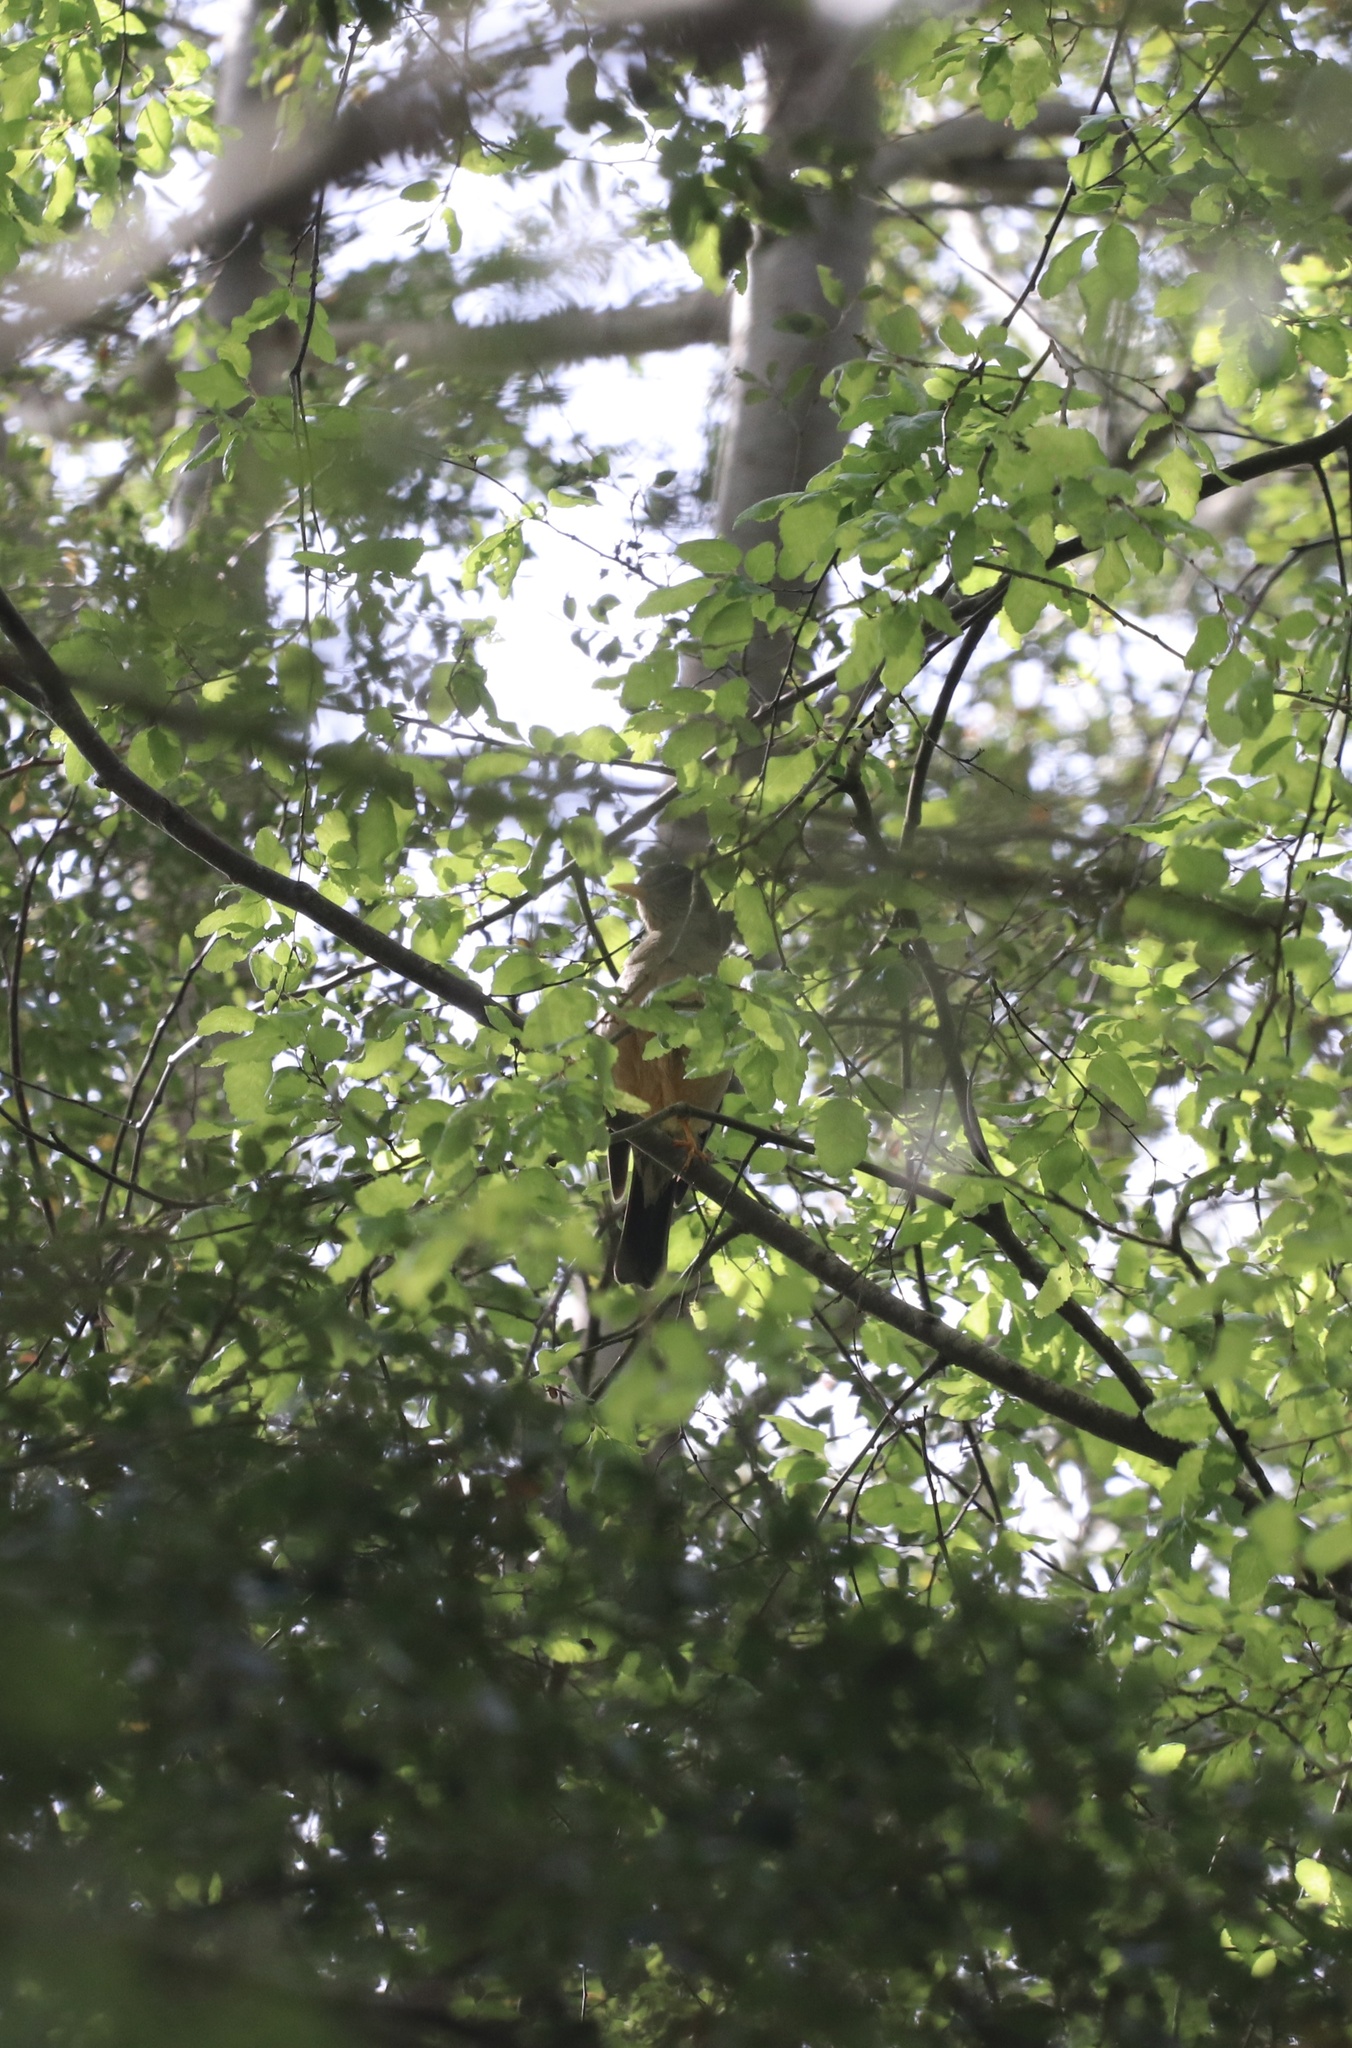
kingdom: Animalia
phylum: Chordata
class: Aves
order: Passeriformes
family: Turdidae
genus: Turdus
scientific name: Turdus falcklandii
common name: Austral thrush
